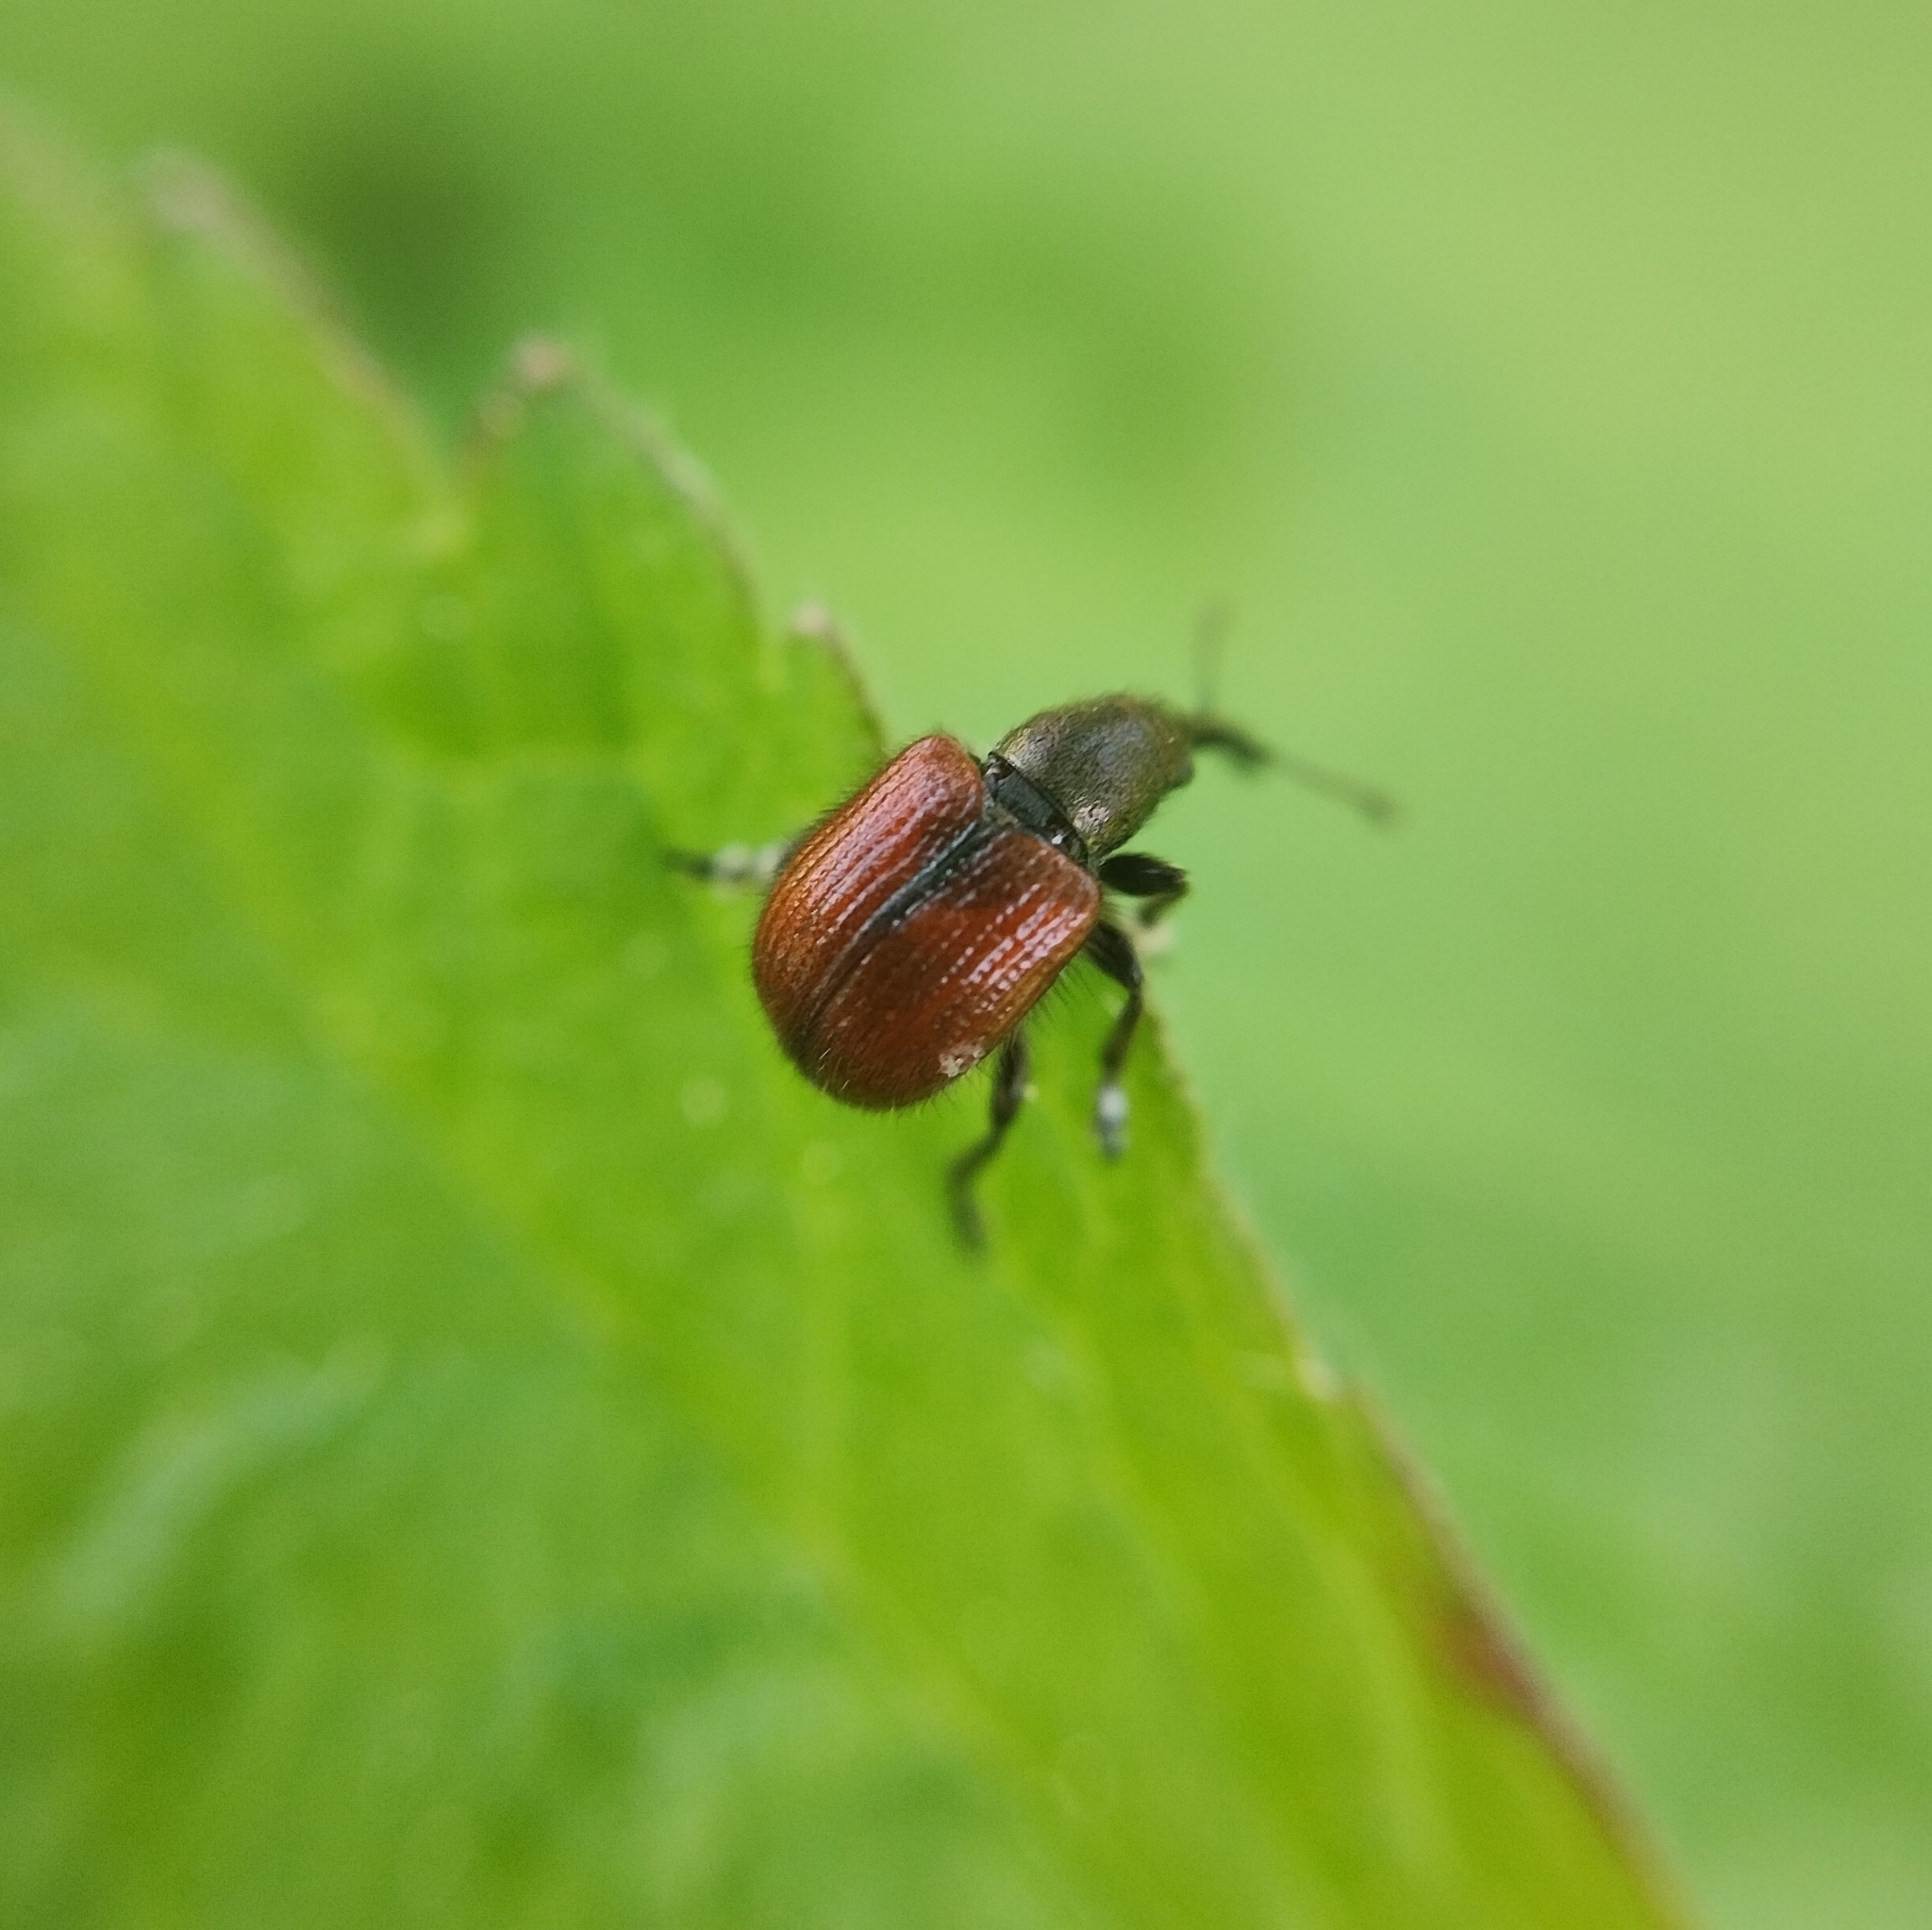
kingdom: Animalia
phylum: Arthropoda
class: Insecta
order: Coleoptera
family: Rhynchitidae
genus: Tatianaerhynchites
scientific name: Tatianaerhynchites aequatus
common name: Apple fruit rhynchites
